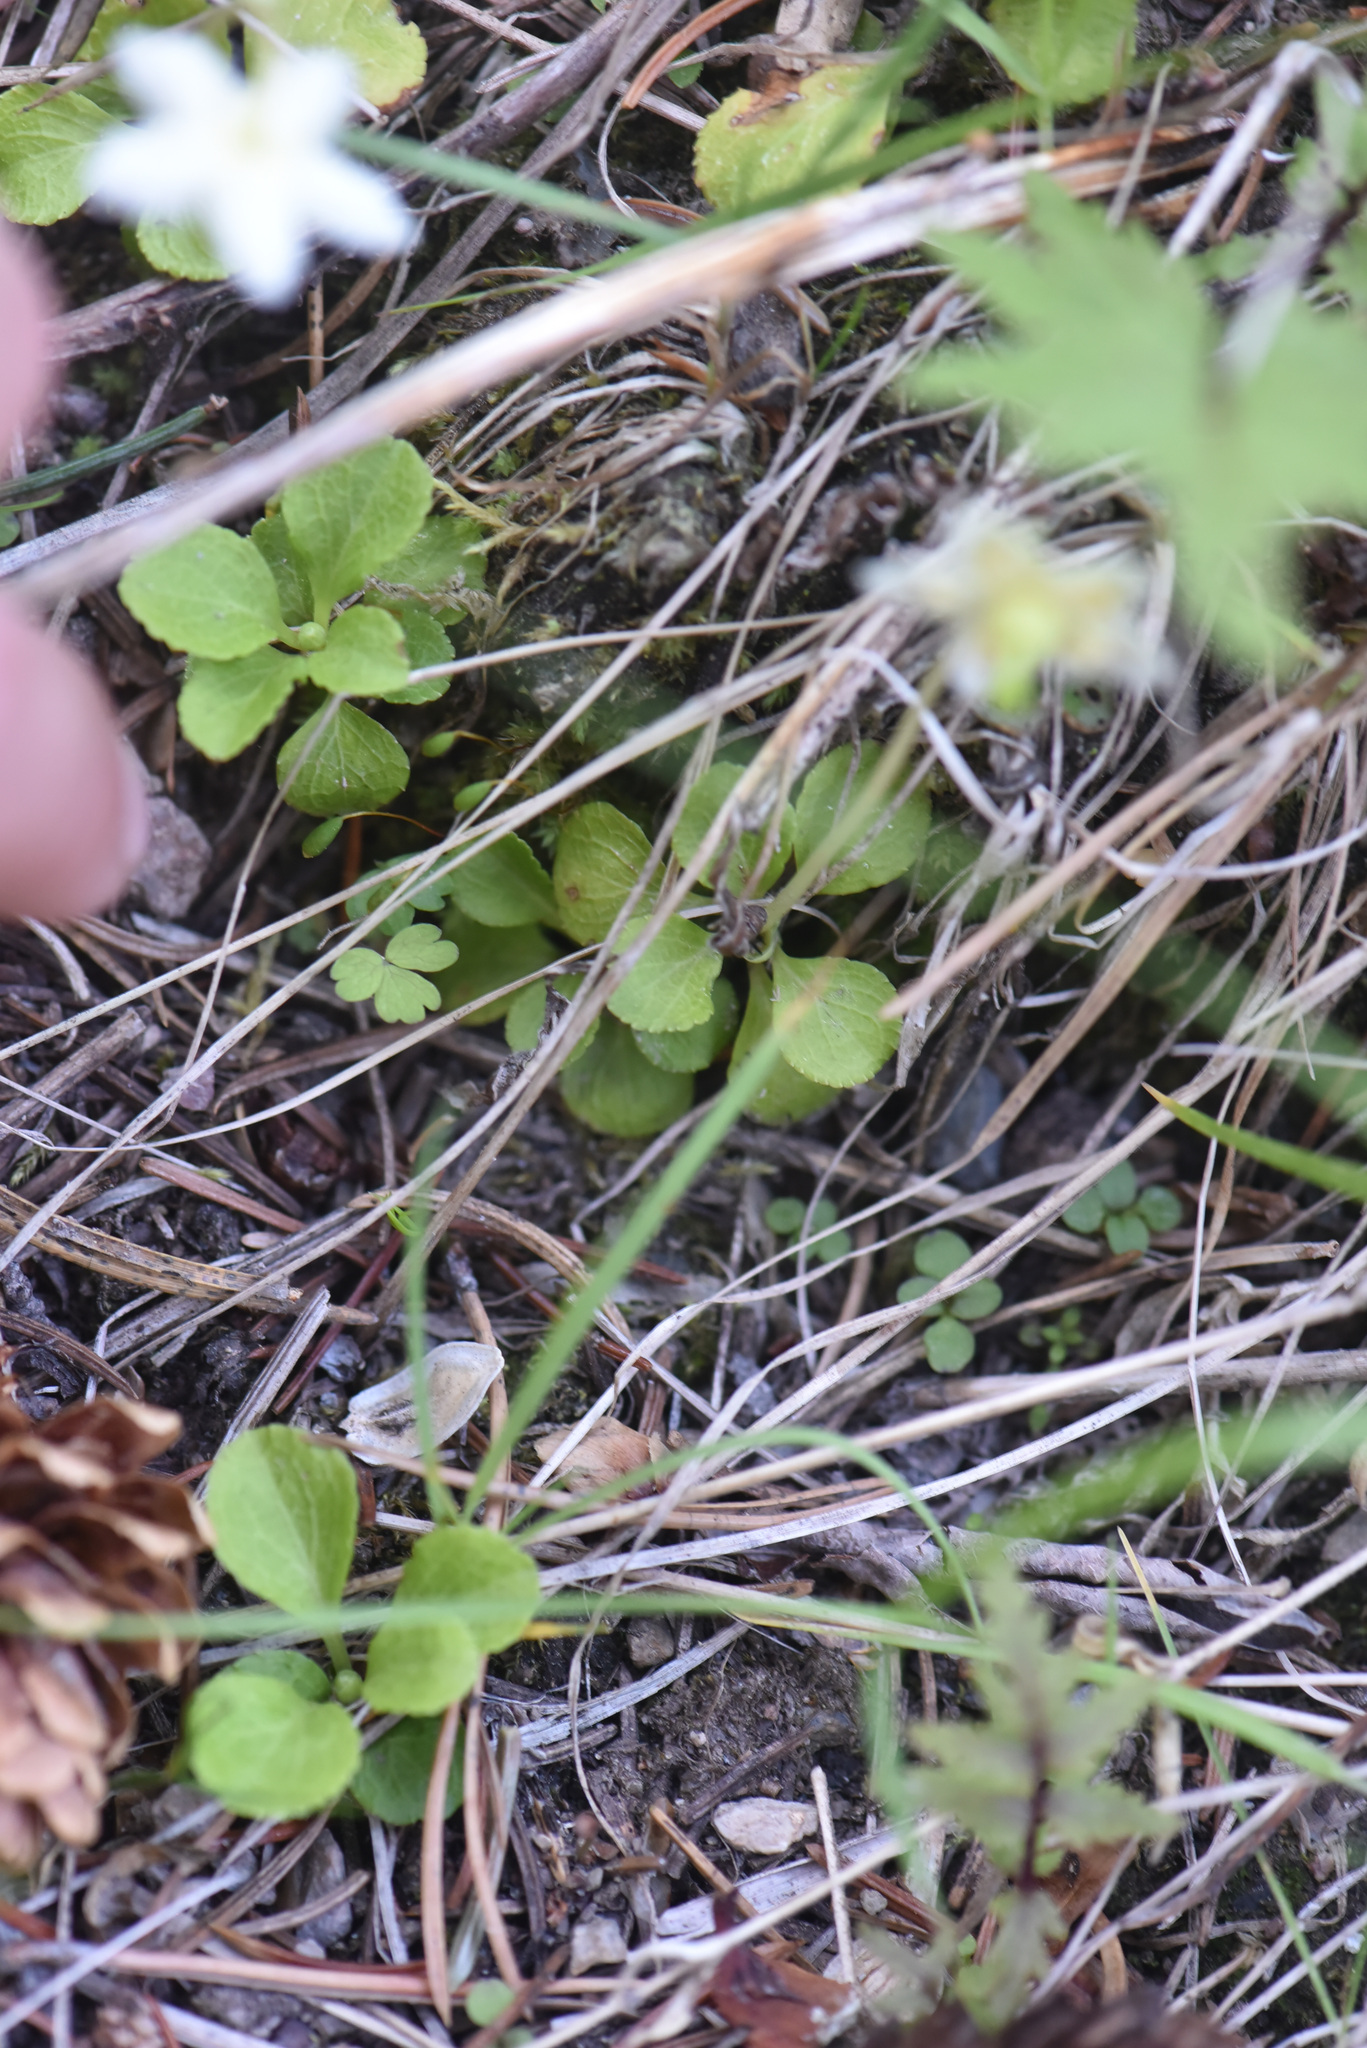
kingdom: Plantae
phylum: Tracheophyta
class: Magnoliopsida
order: Ericales
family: Ericaceae
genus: Moneses
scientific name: Moneses uniflora
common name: One-flowered wintergreen
